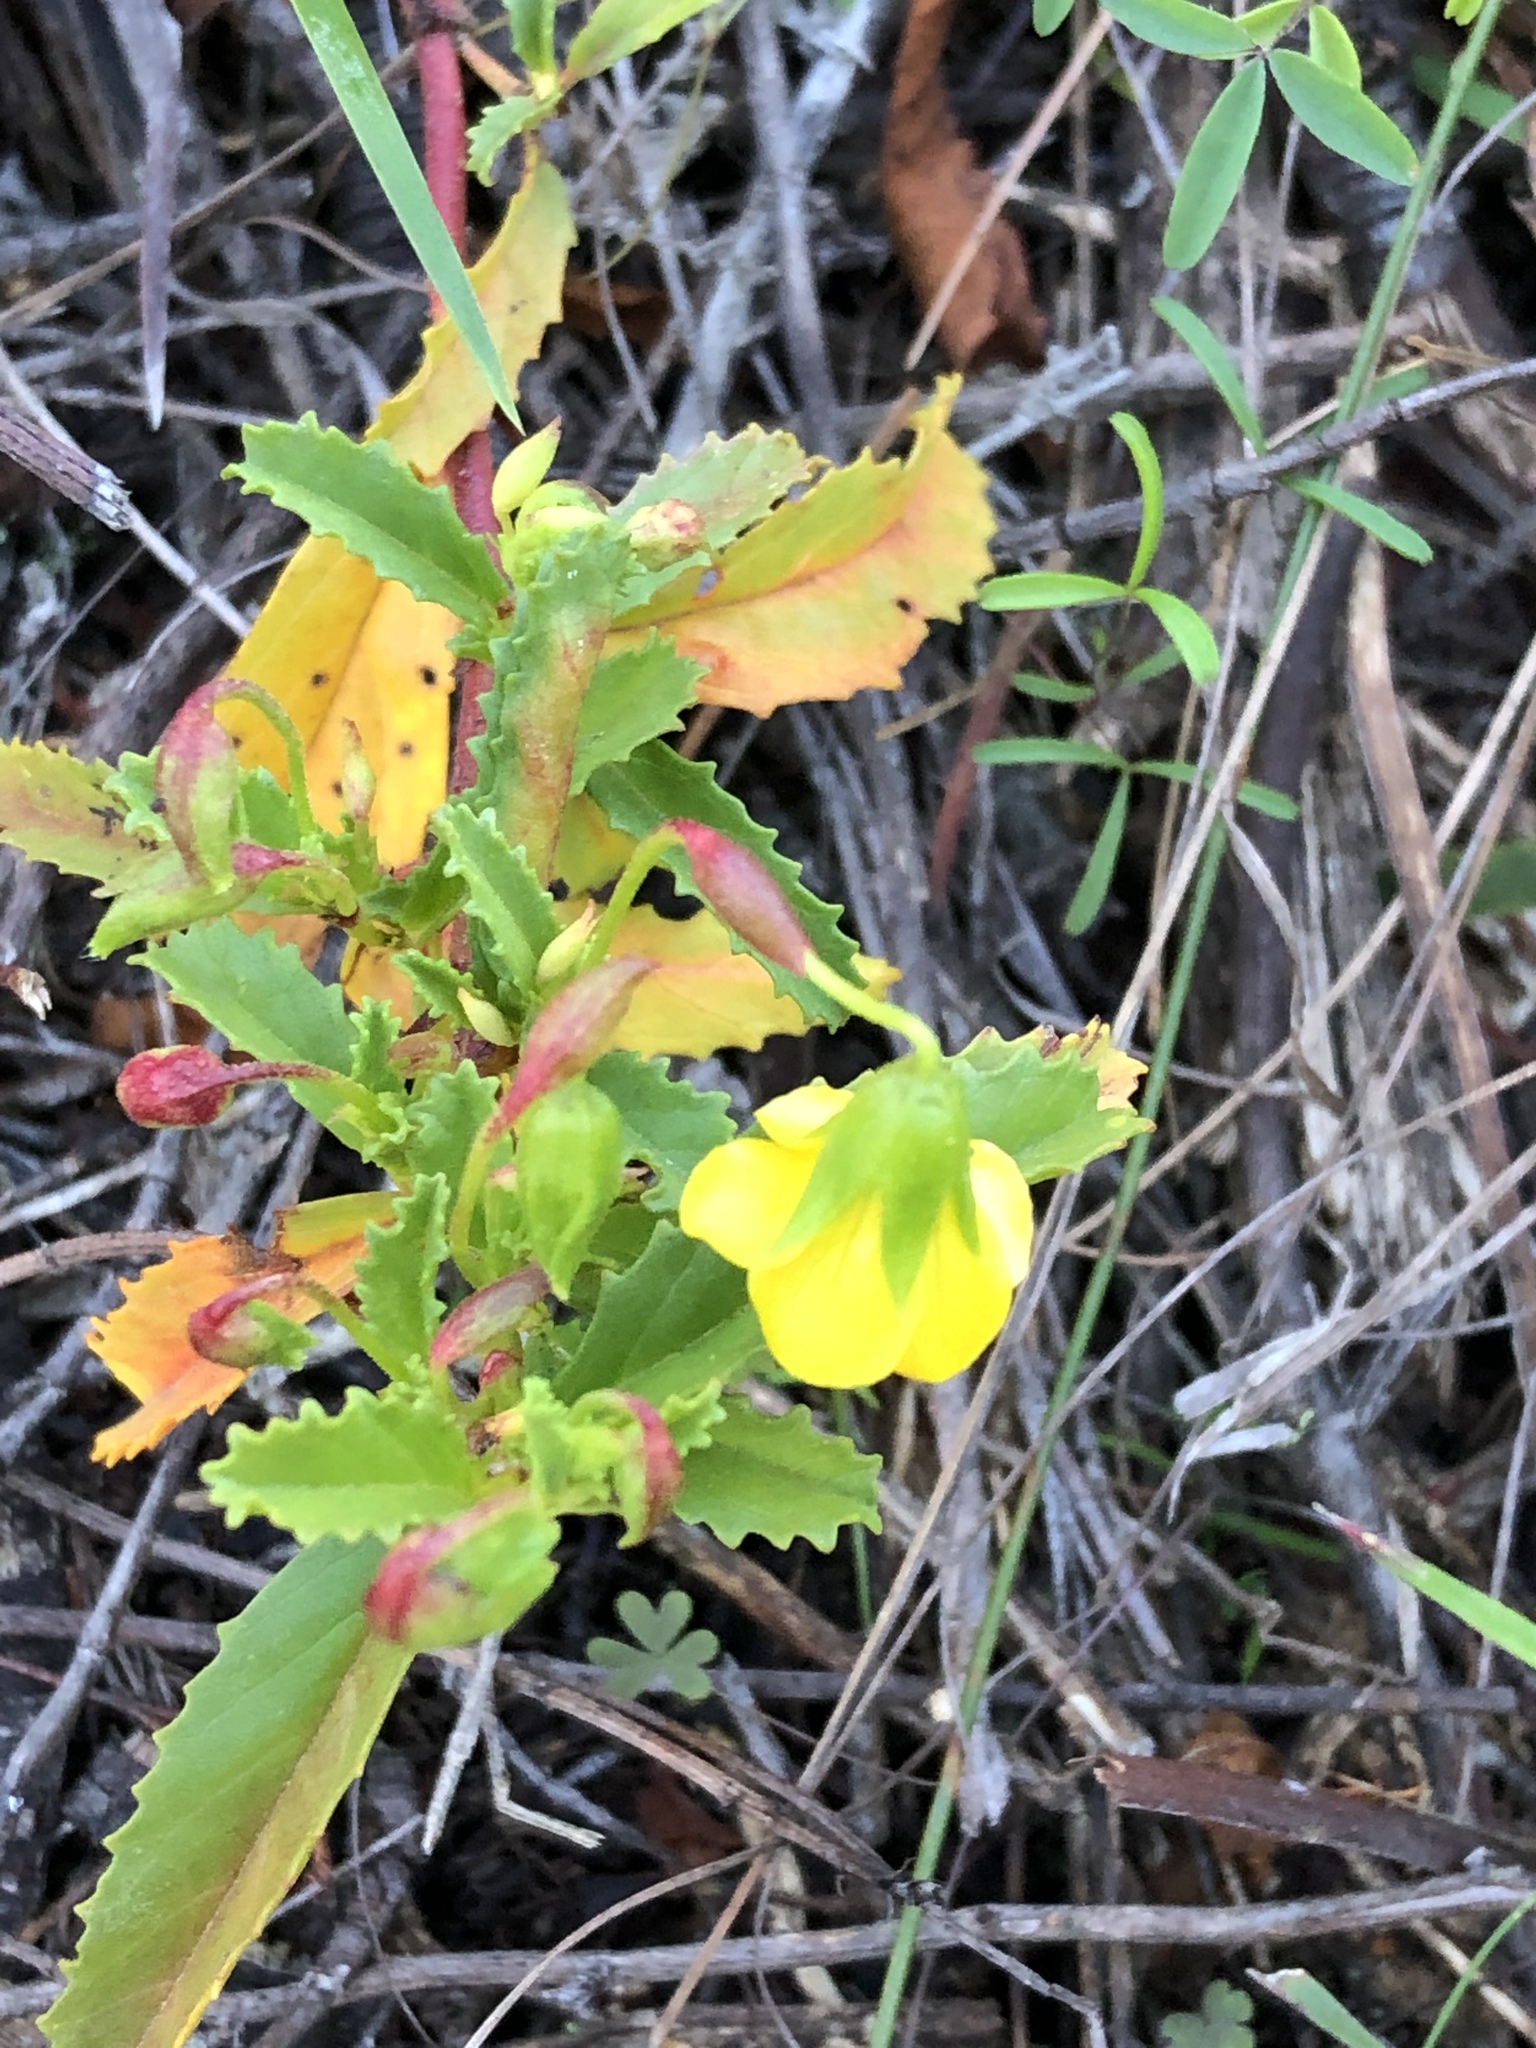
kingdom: Plantae
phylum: Tracheophyta
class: Magnoliopsida
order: Malvales
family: Malvaceae
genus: Hermannia
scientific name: Hermannia saccifera
